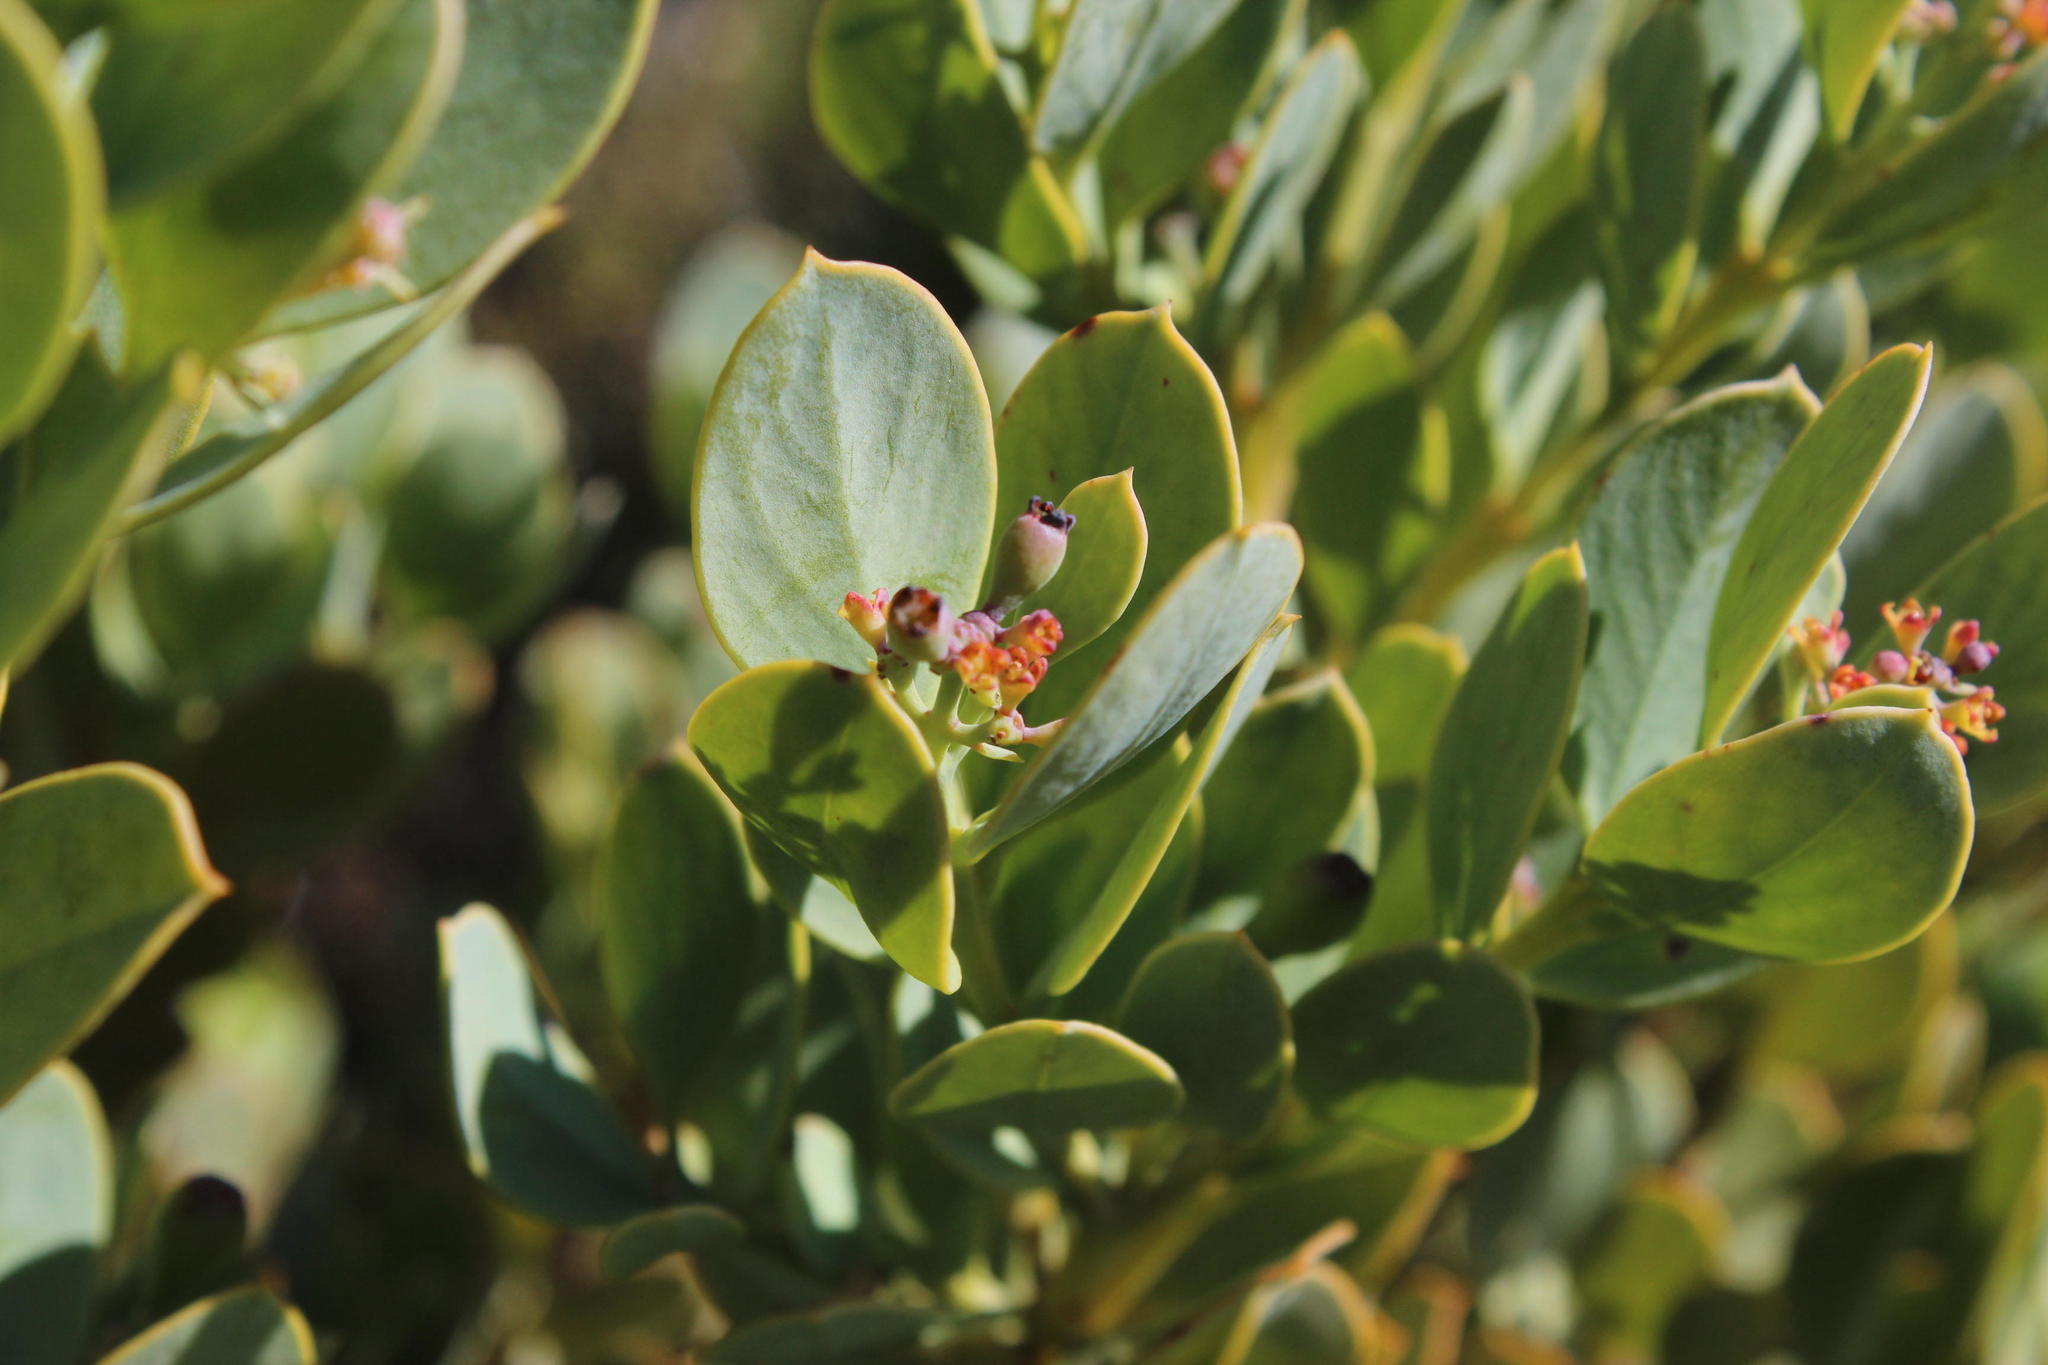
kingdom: Plantae
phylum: Tracheophyta
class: Magnoliopsida
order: Santalales
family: Santalaceae
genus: Osyris
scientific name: Osyris compressa
